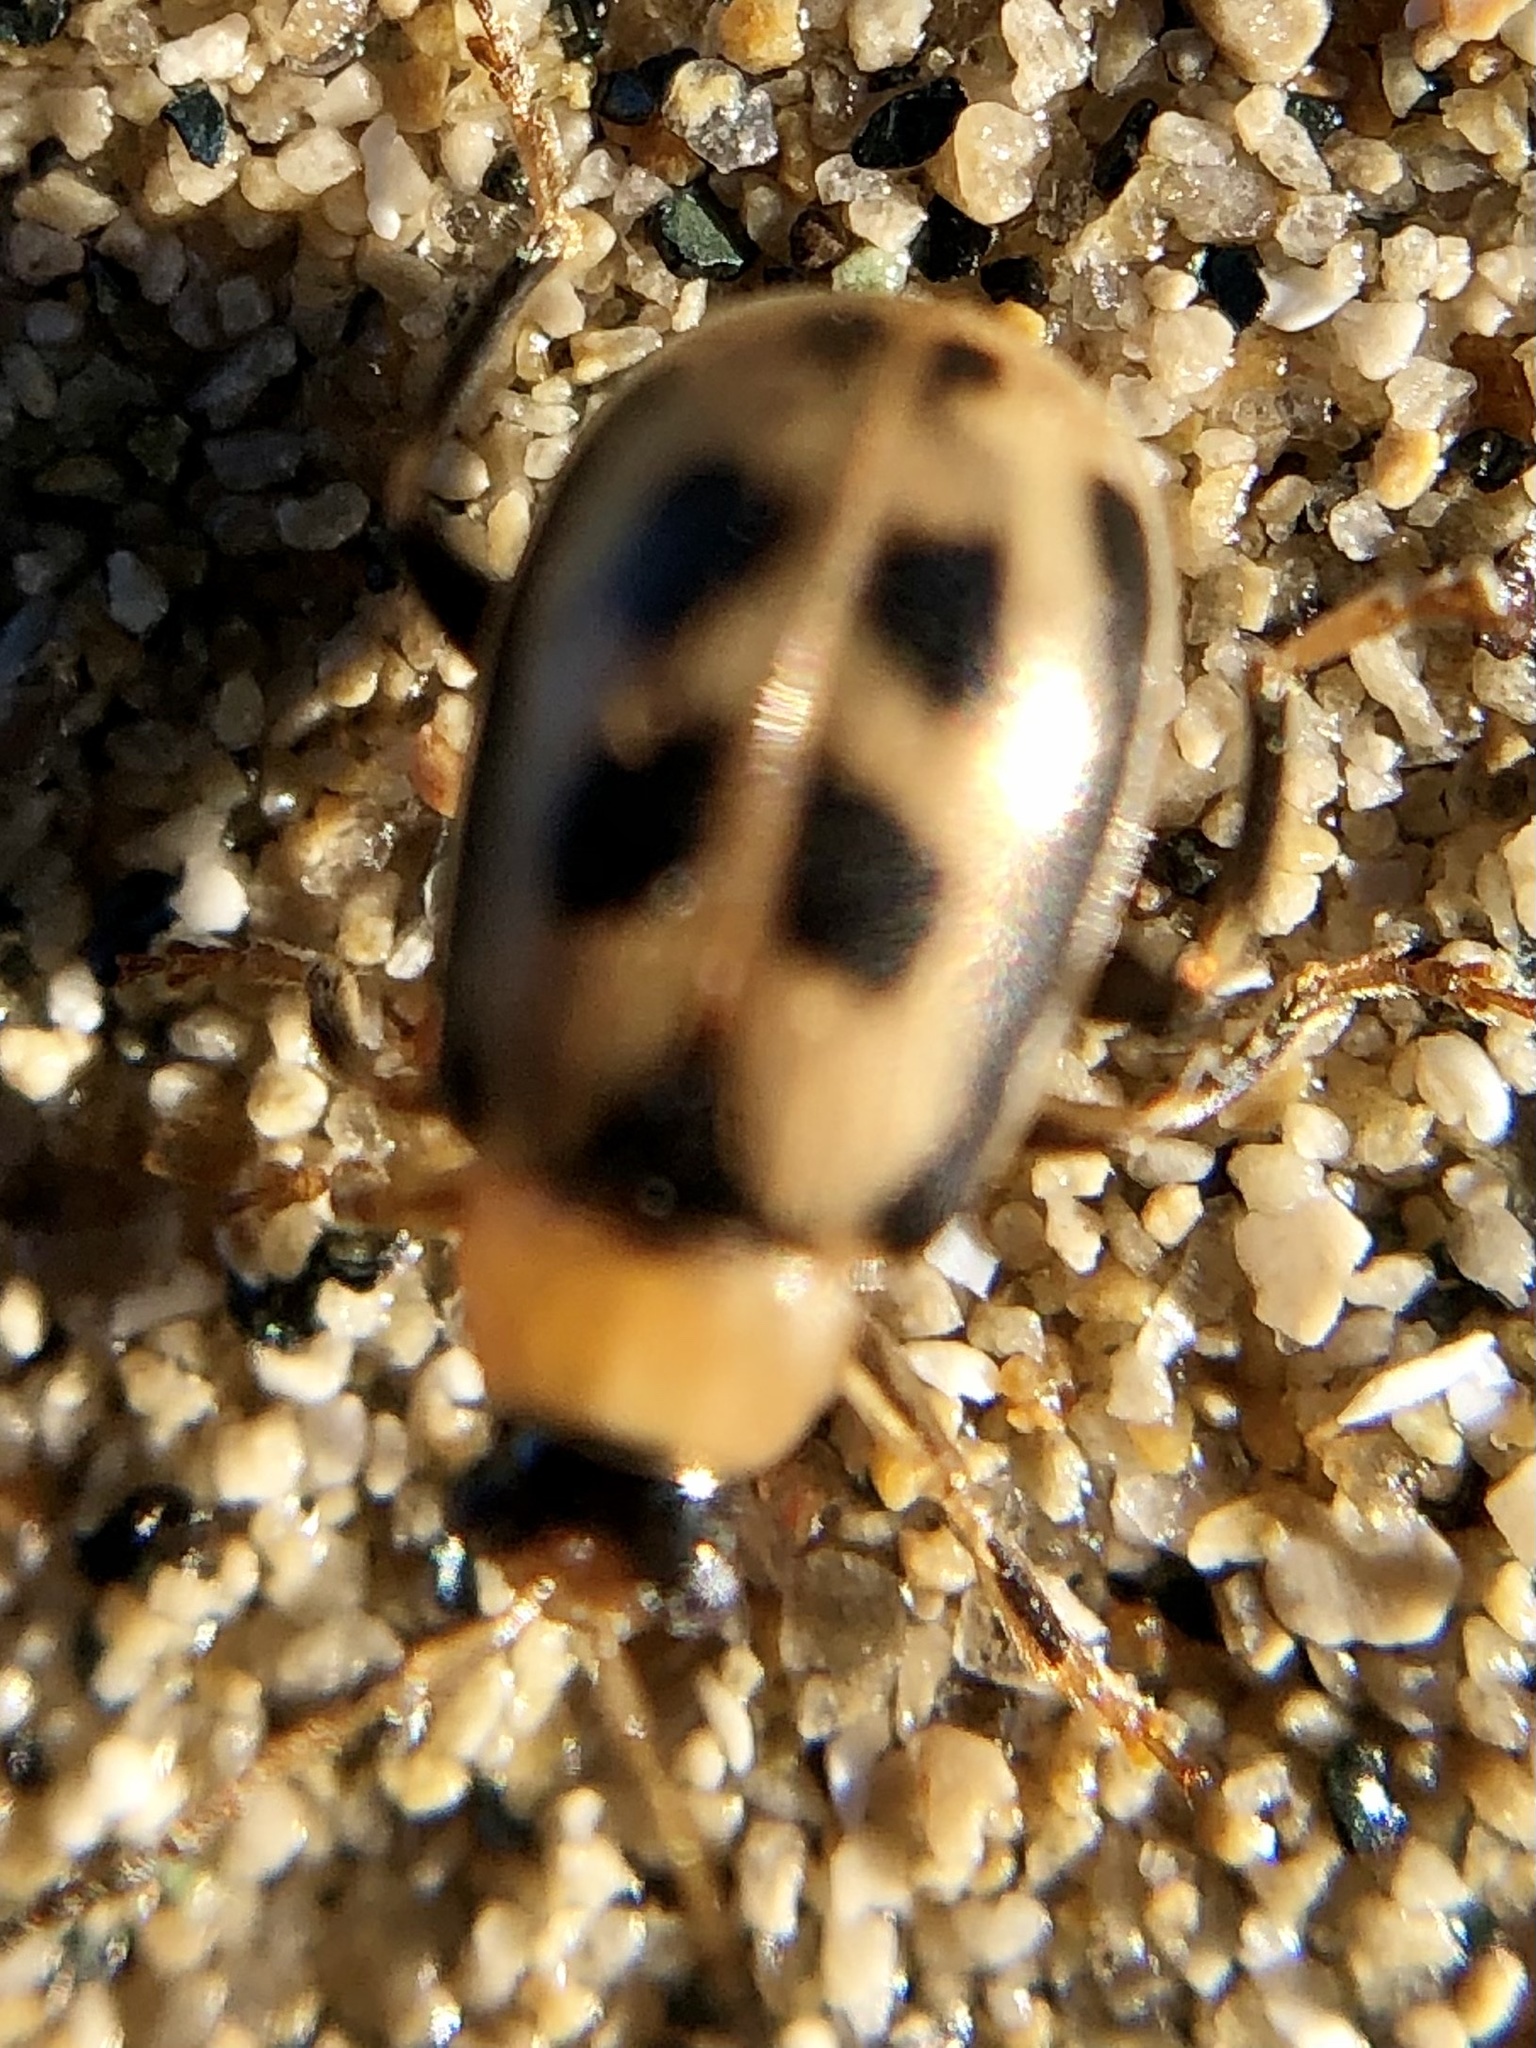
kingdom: Animalia
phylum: Arthropoda
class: Insecta
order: Coleoptera
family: Chrysomelidae
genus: Cerotoma
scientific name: Cerotoma trifurcata
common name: Bean leaf beetle
